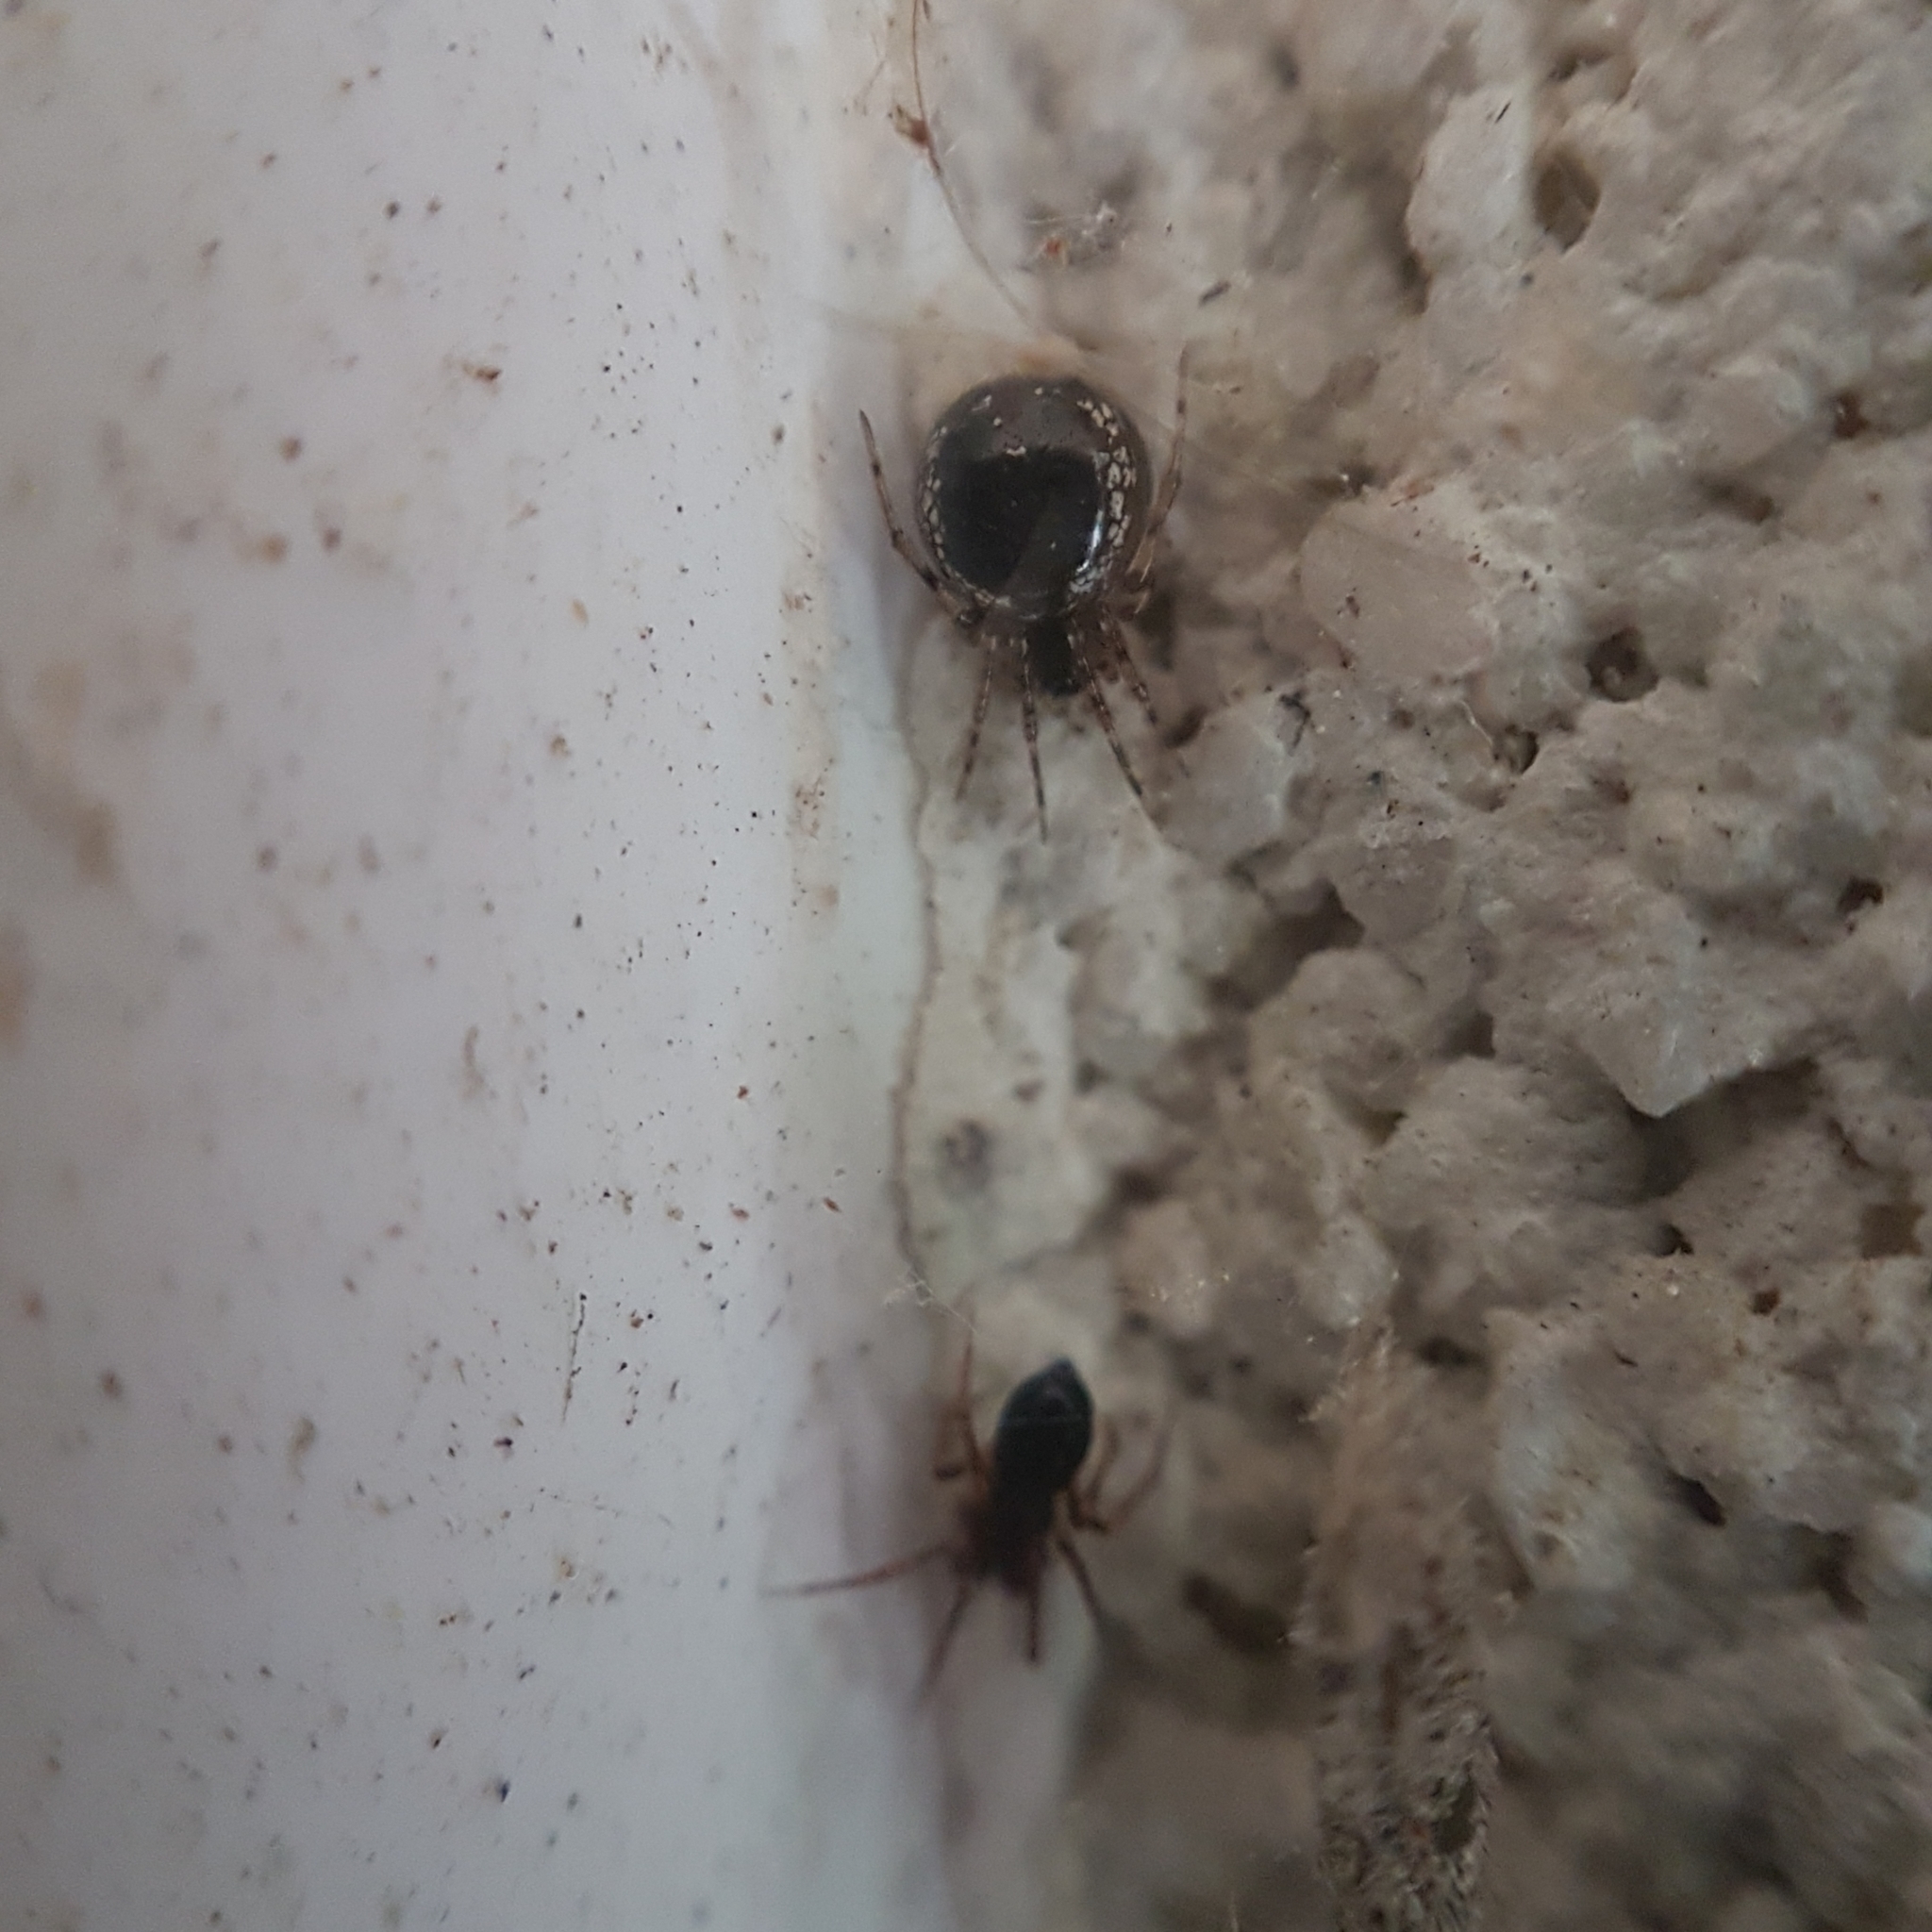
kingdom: Animalia
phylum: Arthropoda
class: Arachnida
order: Araneae
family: Theridiidae
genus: Sardinidion
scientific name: Sardinidion blackwalli
